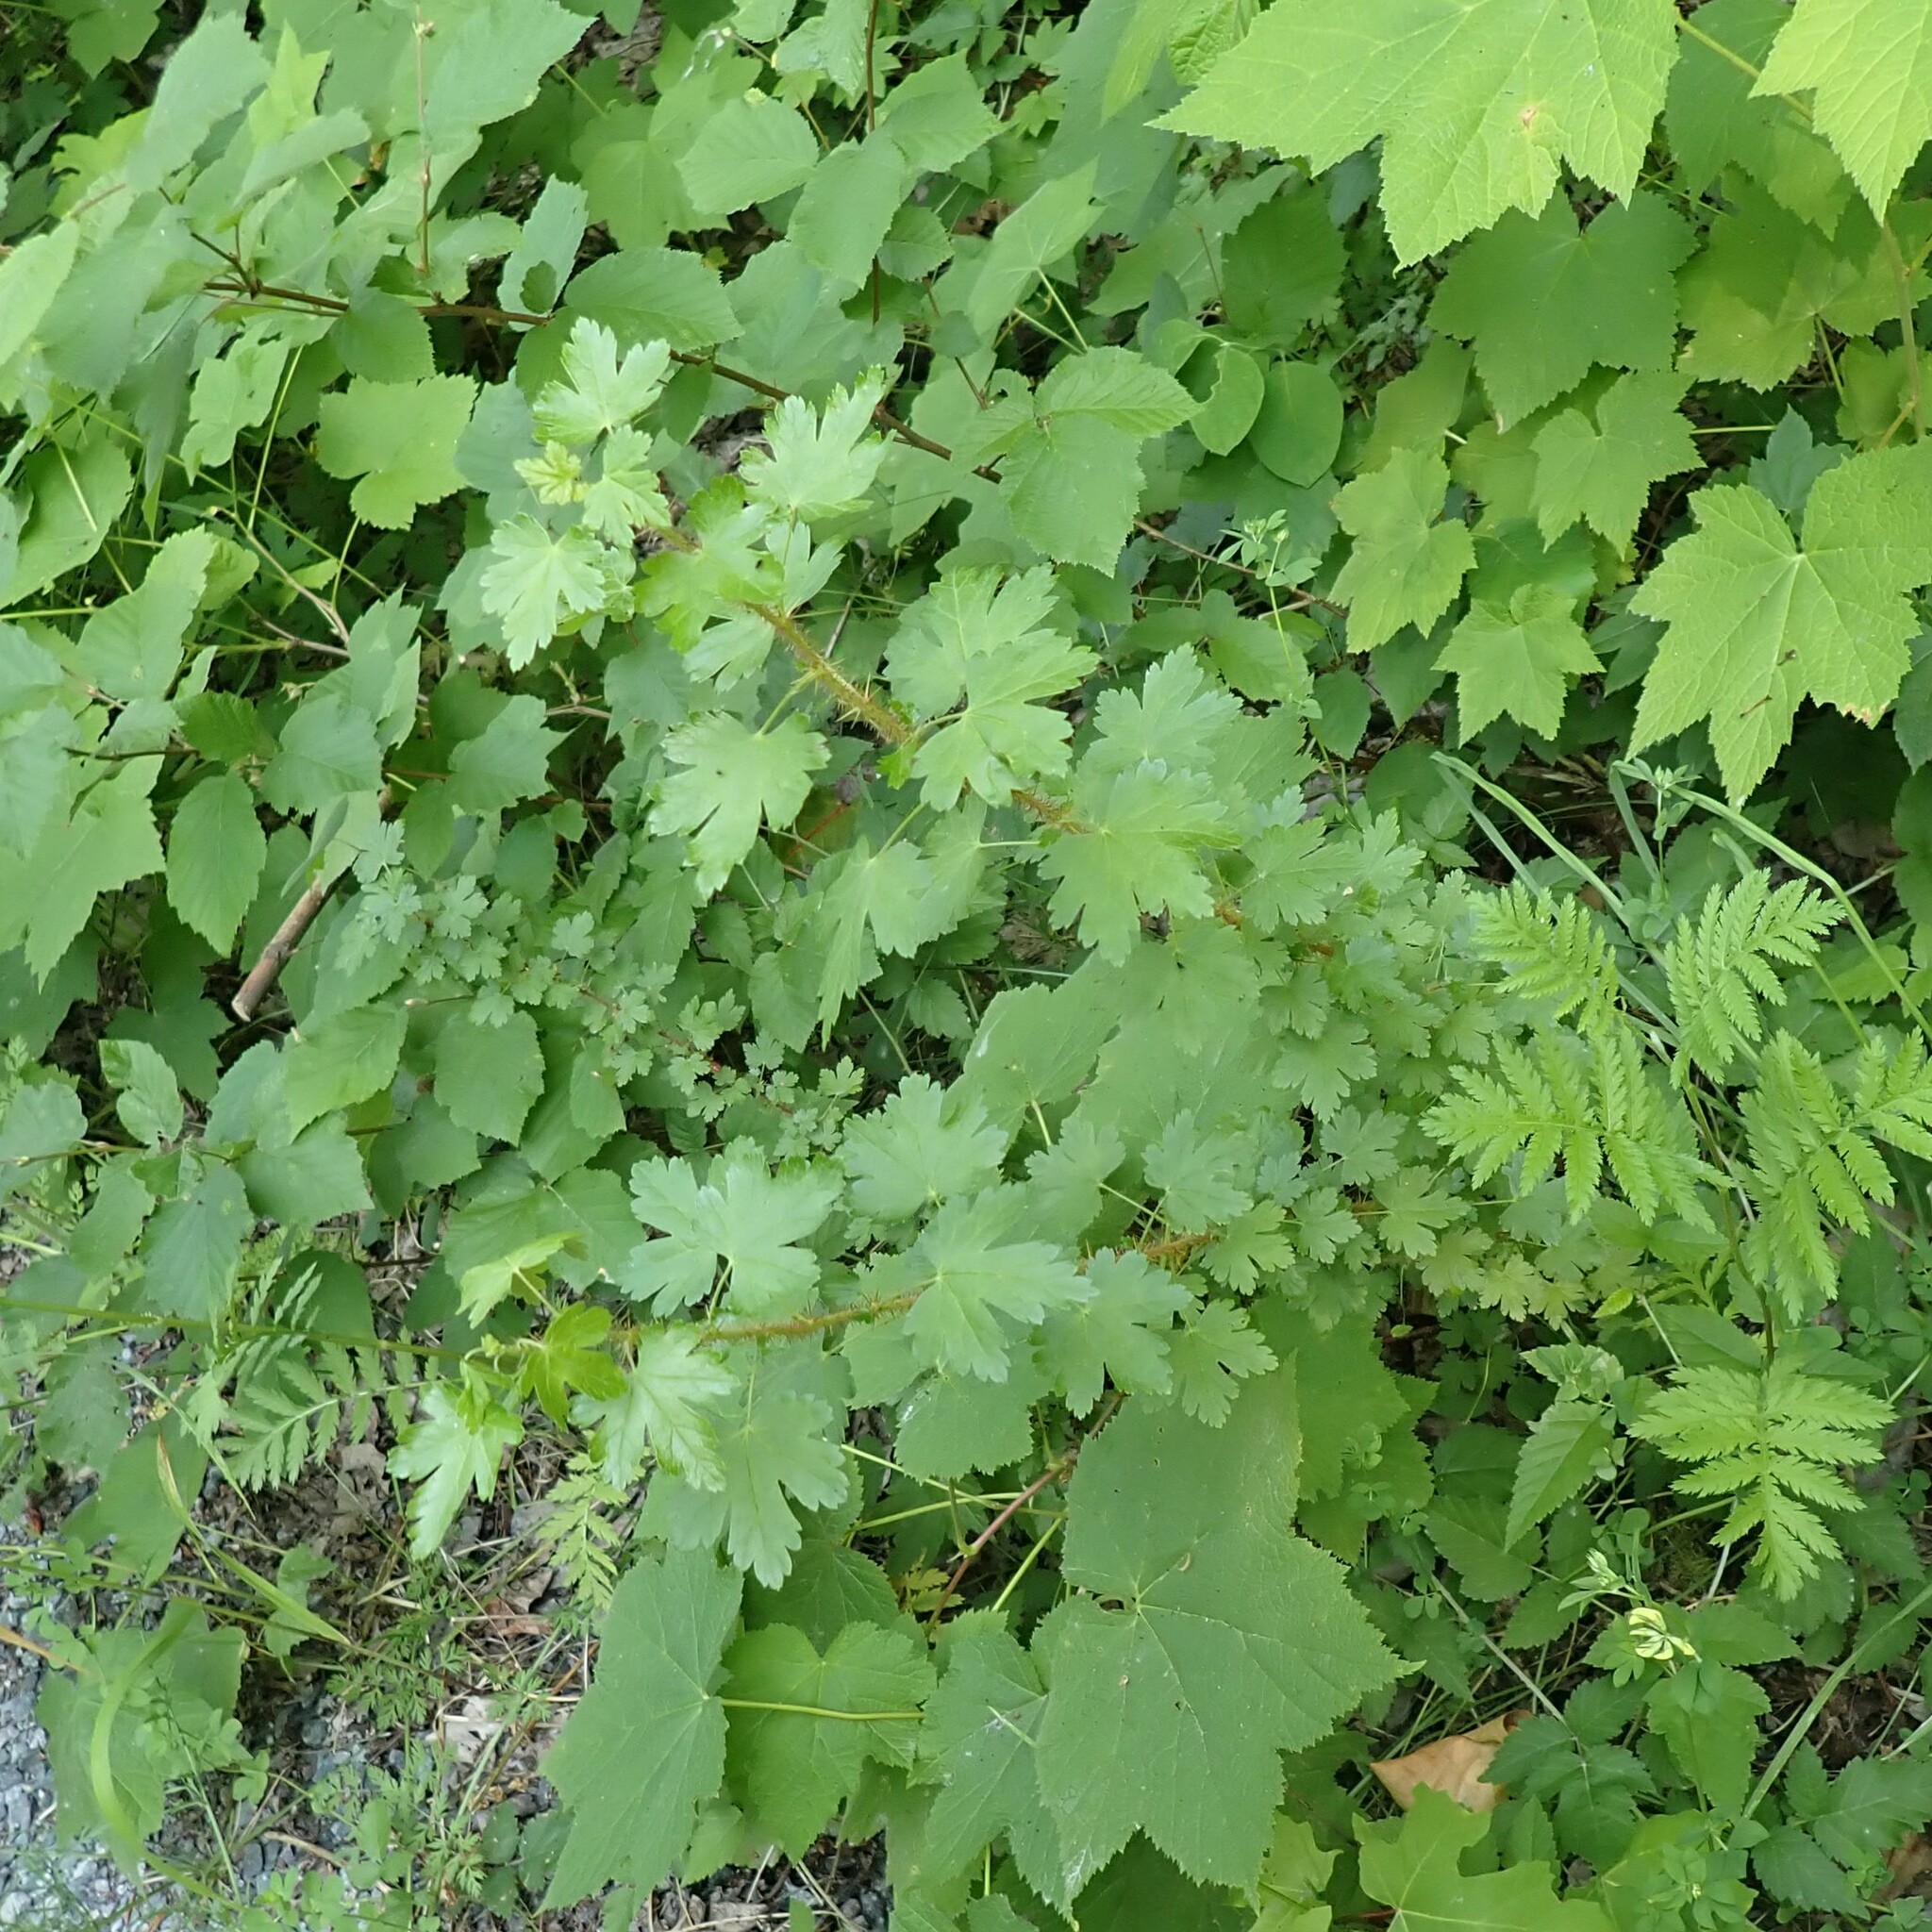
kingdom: Plantae
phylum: Tracheophyta
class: Magnoliopsida
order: Saxifragales
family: Grossulariaceae
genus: Ribes
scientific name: Ribes lacustre
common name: Black gooseberry
